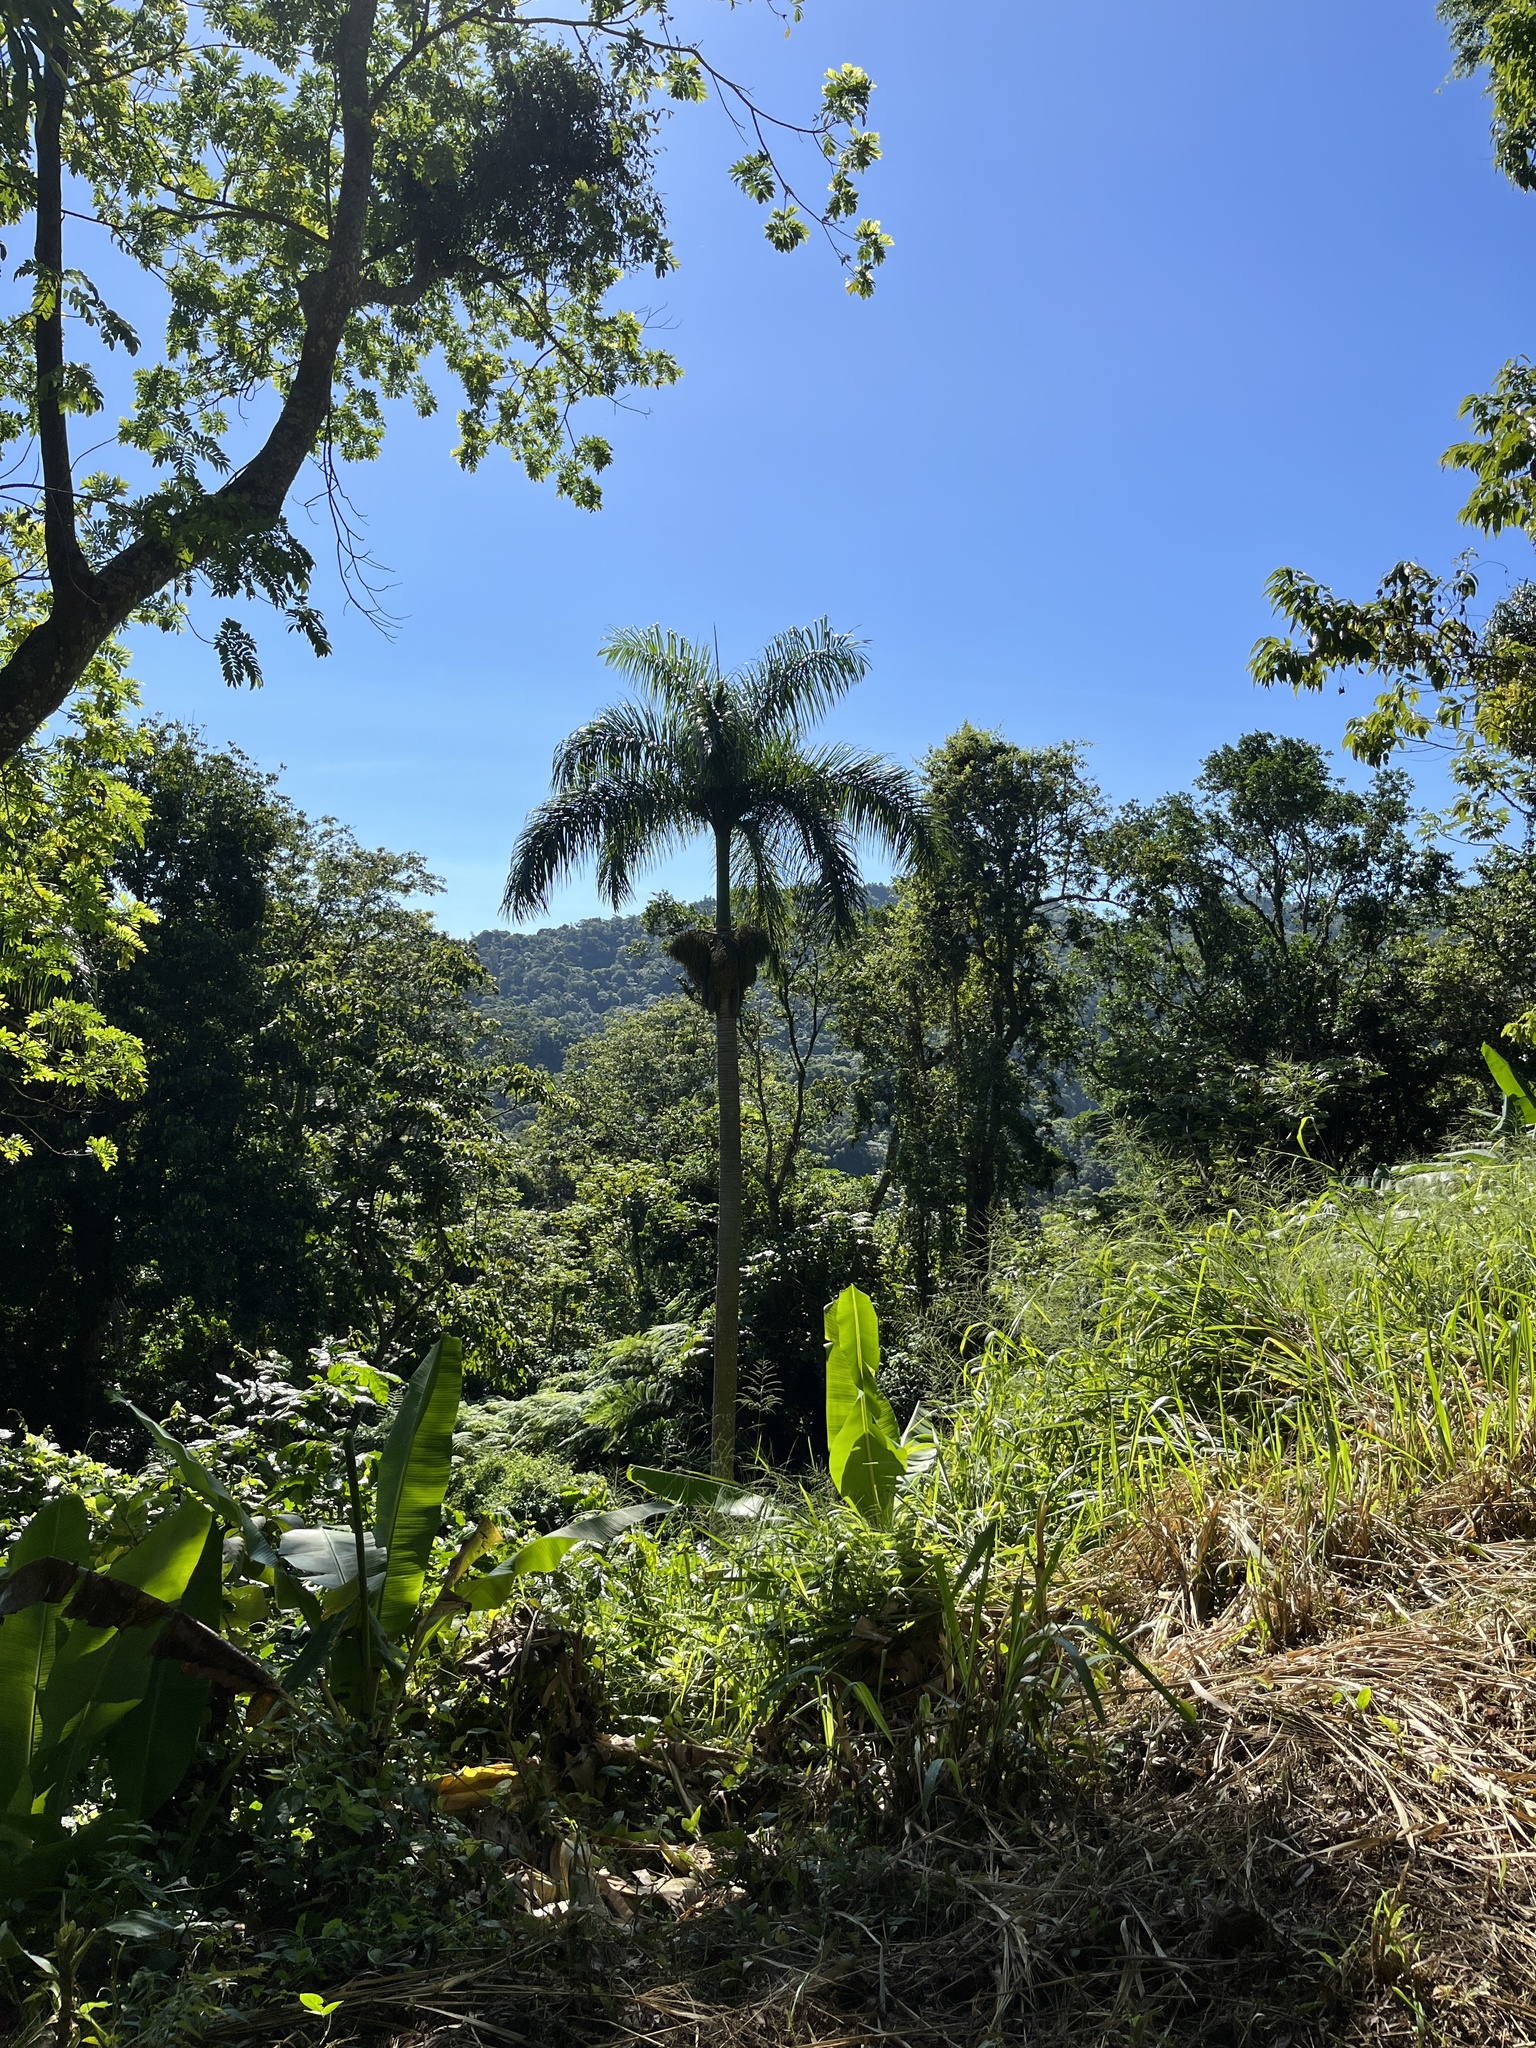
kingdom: Plantae
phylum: Tracheophyta
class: Liliopsida
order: Arecales
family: Arecaceae
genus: Roystonea
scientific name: Roystonea borinquena
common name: Puerto rican royal palm
